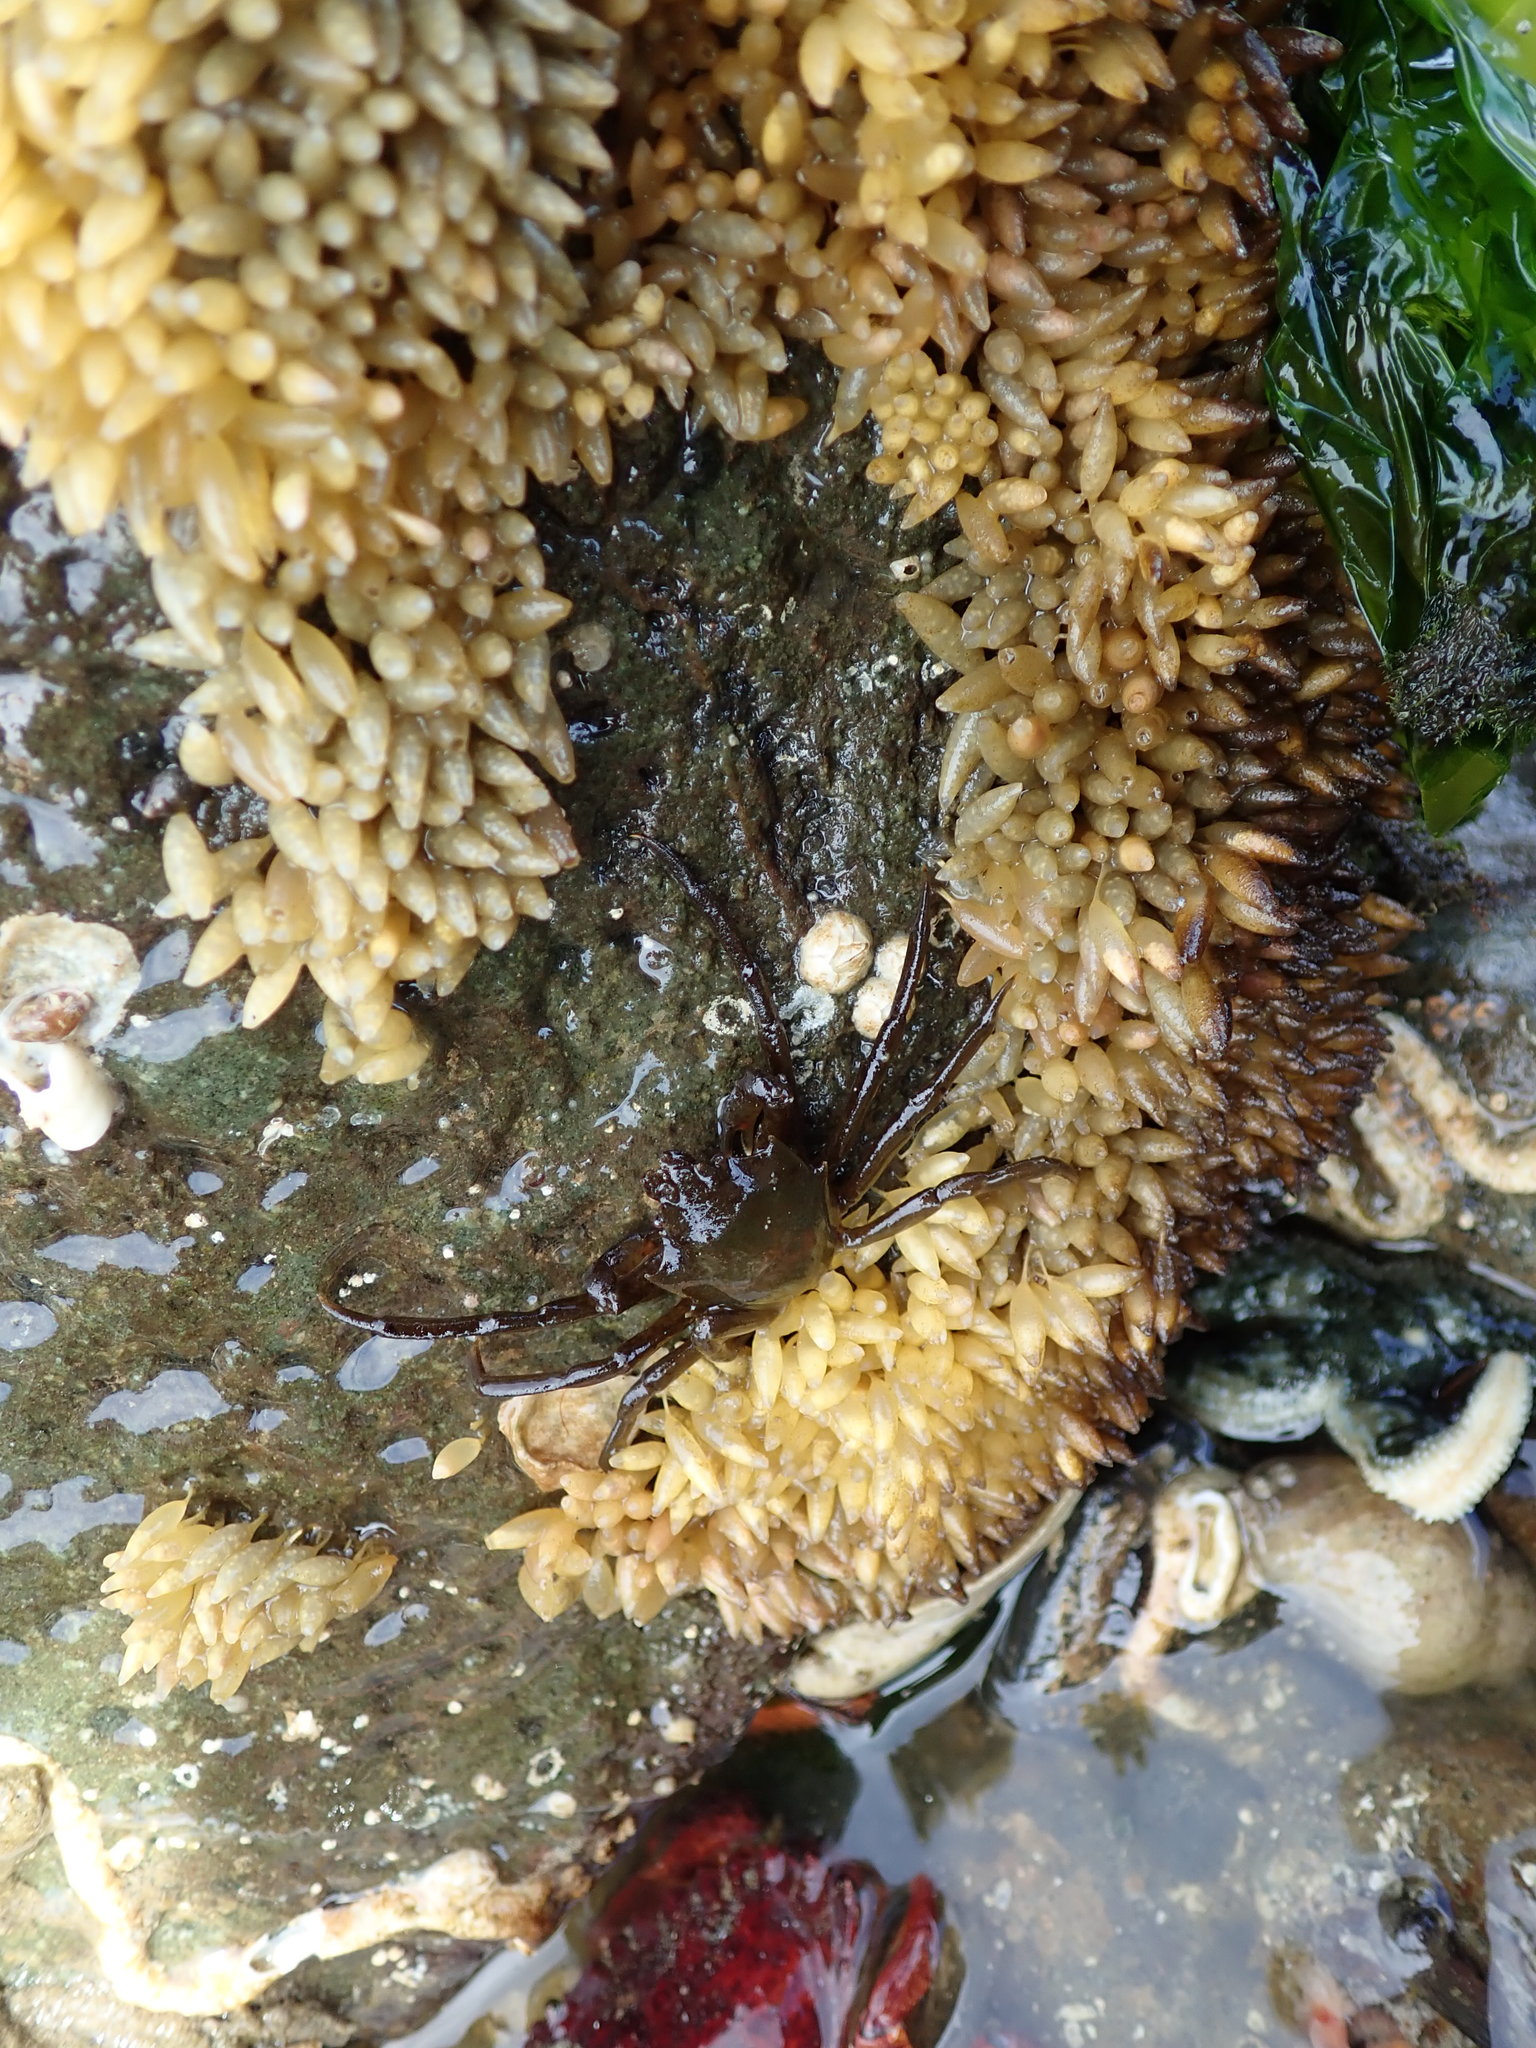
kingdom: Animalia
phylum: Mollusca
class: Gastropoda
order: Neogastropoda
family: Muricidae
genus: Nucella
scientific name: Nucella lamellosa
